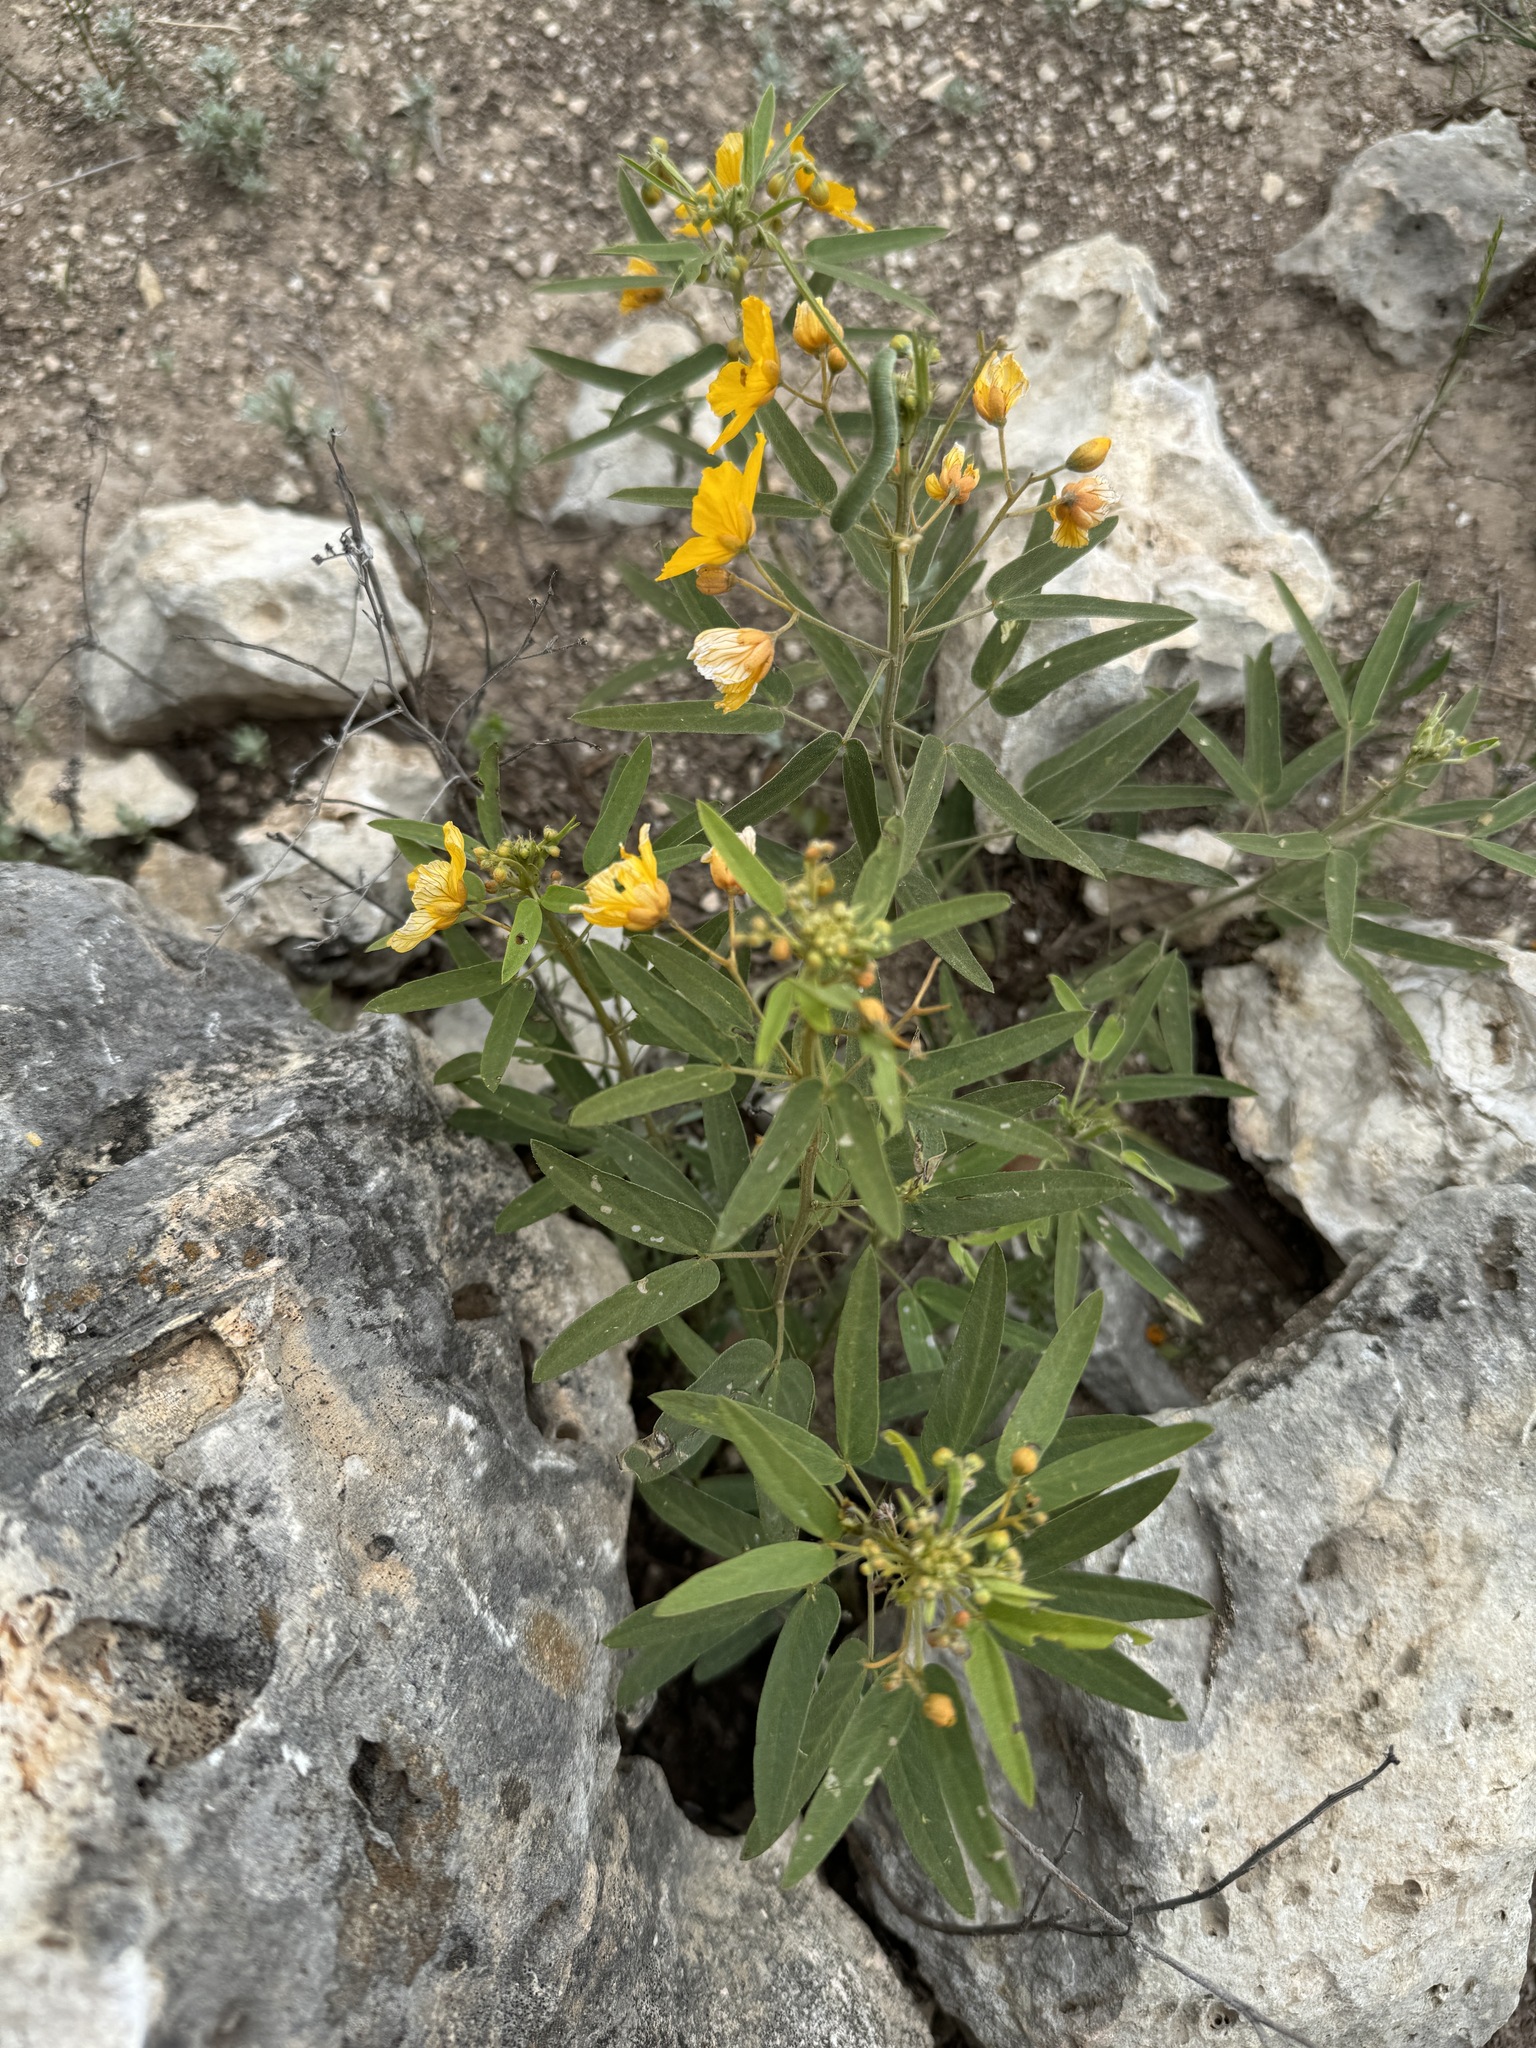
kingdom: Plantae
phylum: Tracheophyta
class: Magnoliopsida
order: Fabales
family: Fabaceae
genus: Senna
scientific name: Senna roemeriana
